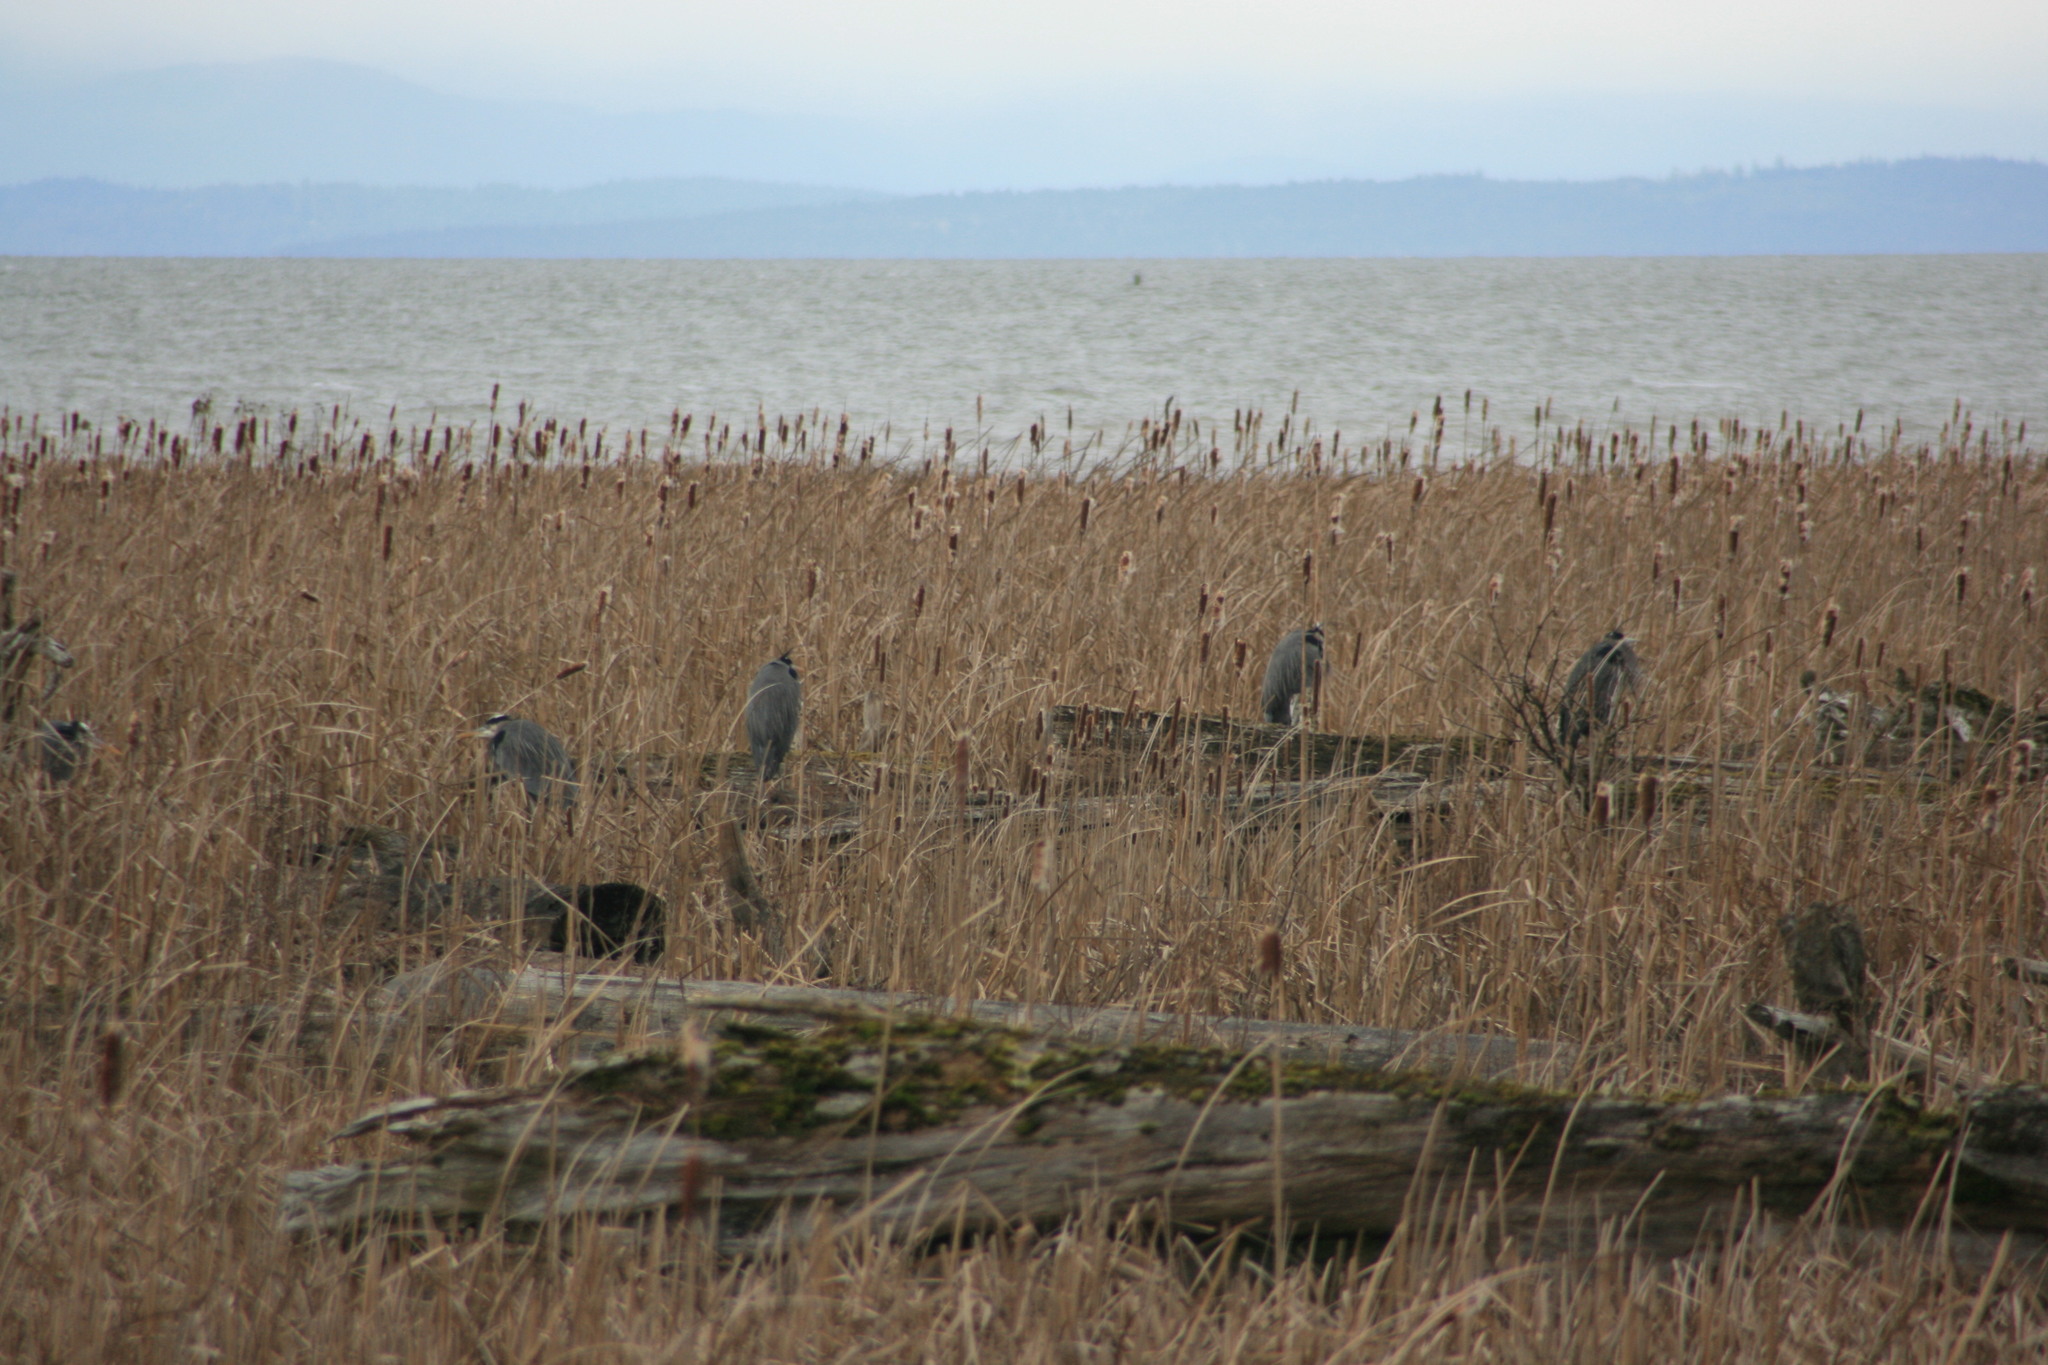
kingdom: Animalia
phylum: Chordata
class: Aves
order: Pelecaniformes
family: Ardeidae
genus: Ardea
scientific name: Ardea herodias
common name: Great blue heron
